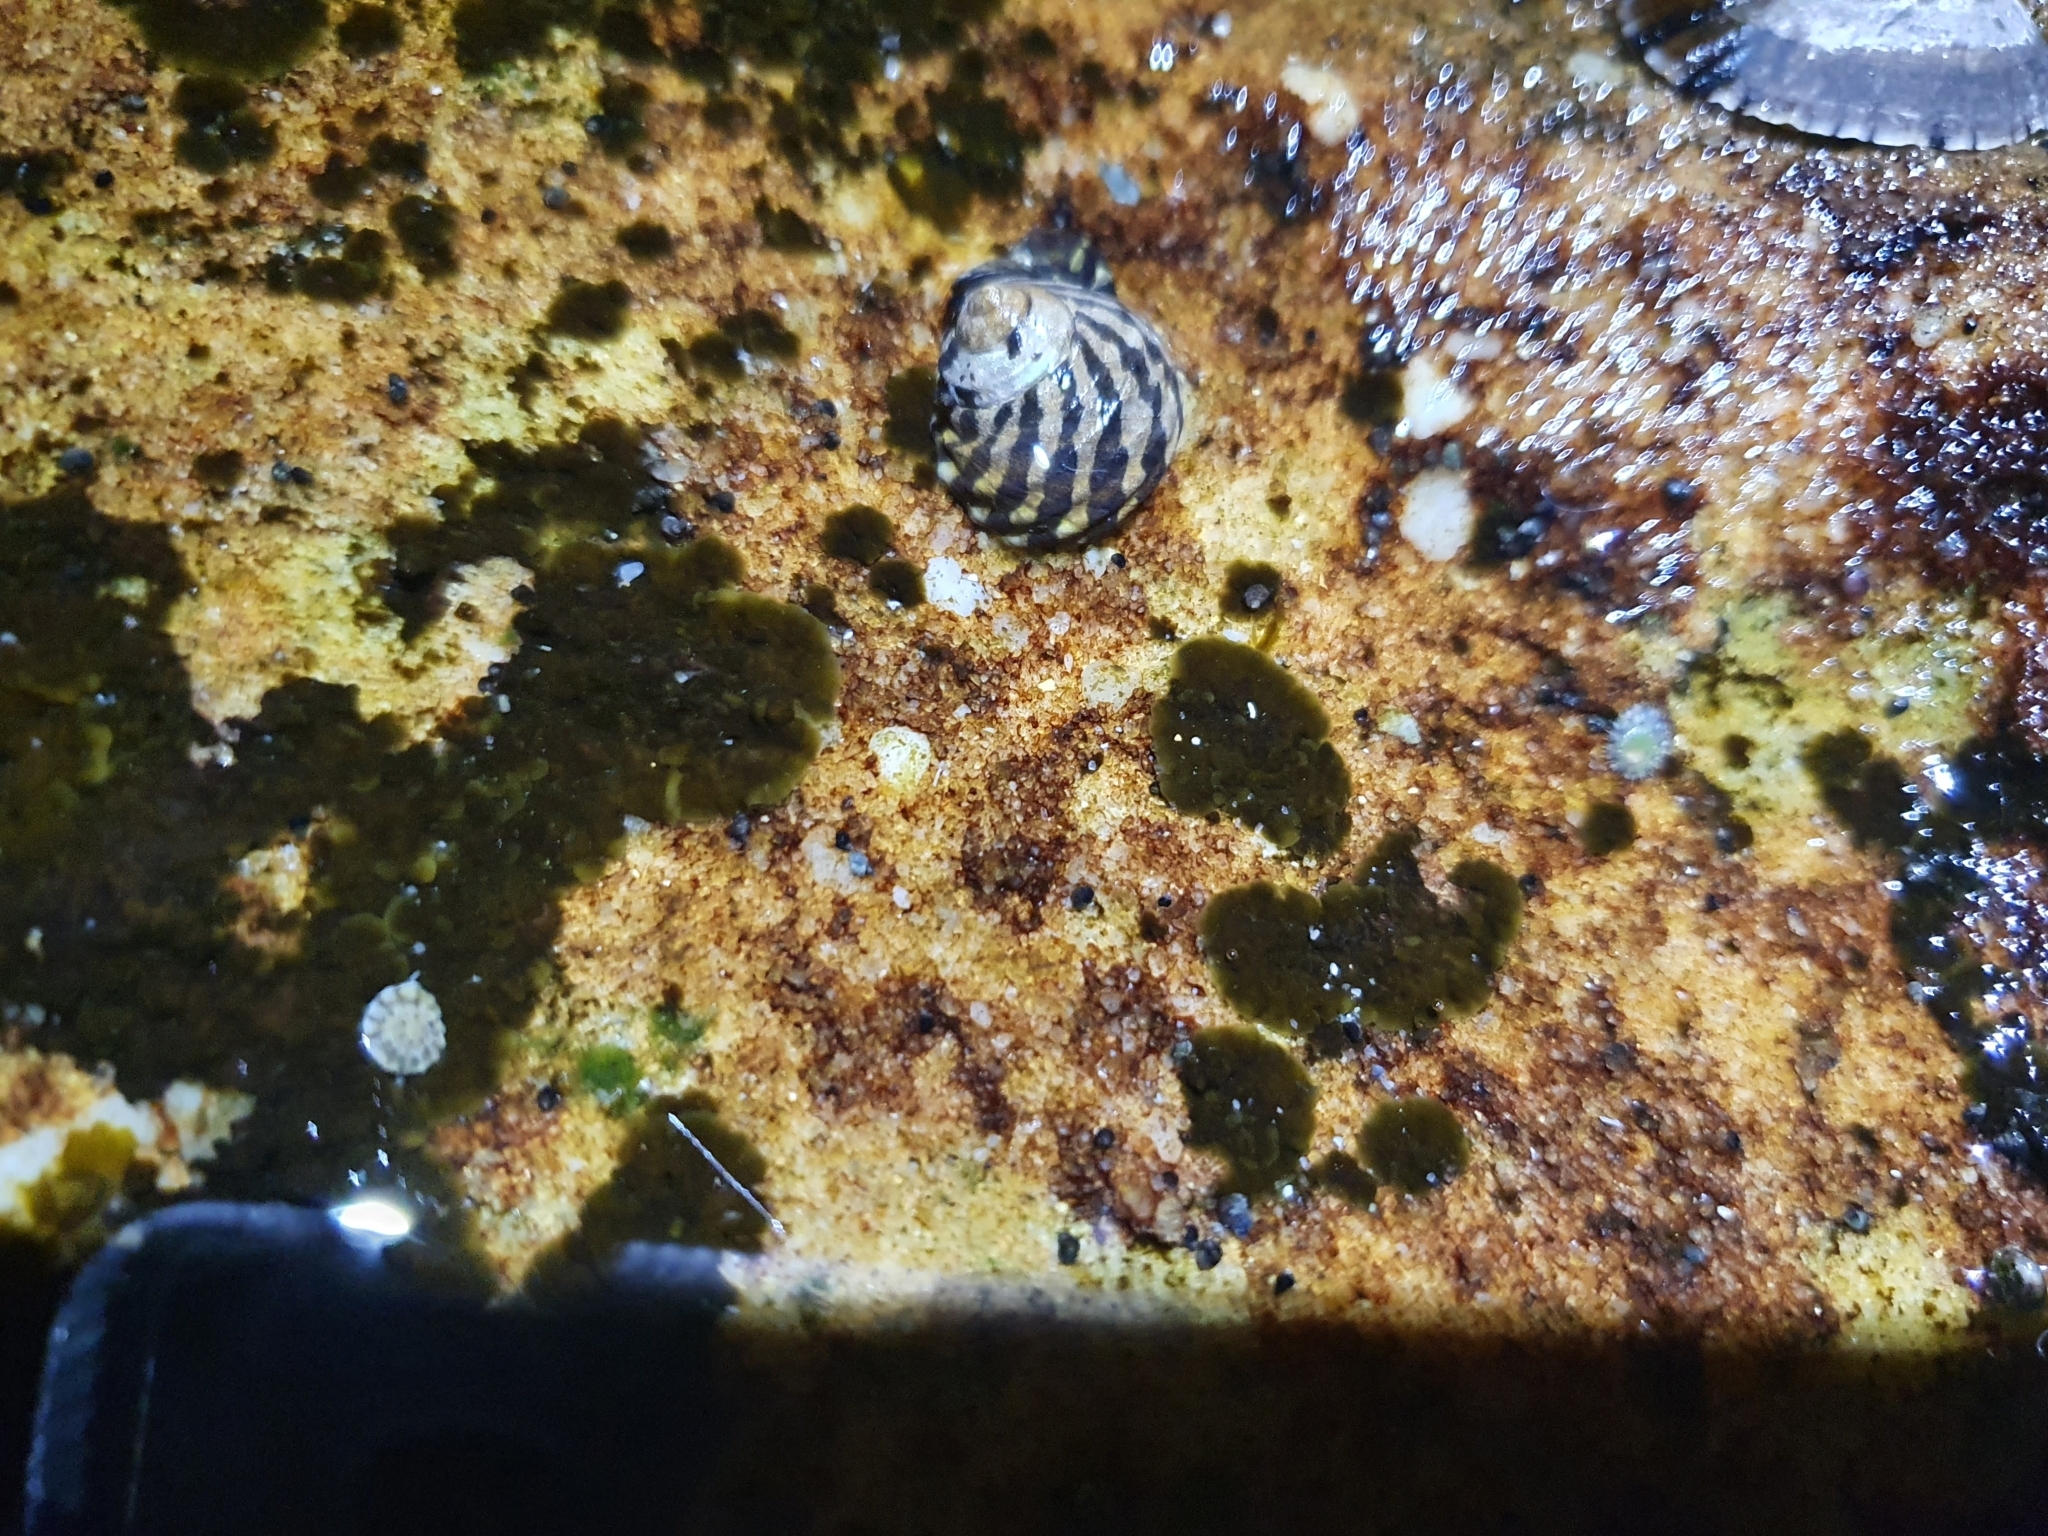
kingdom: Animalia
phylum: Mollusca
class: Gastropoda
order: Trochida
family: Trochidae
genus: Austrocochlea
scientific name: Austrocochlea porcata
